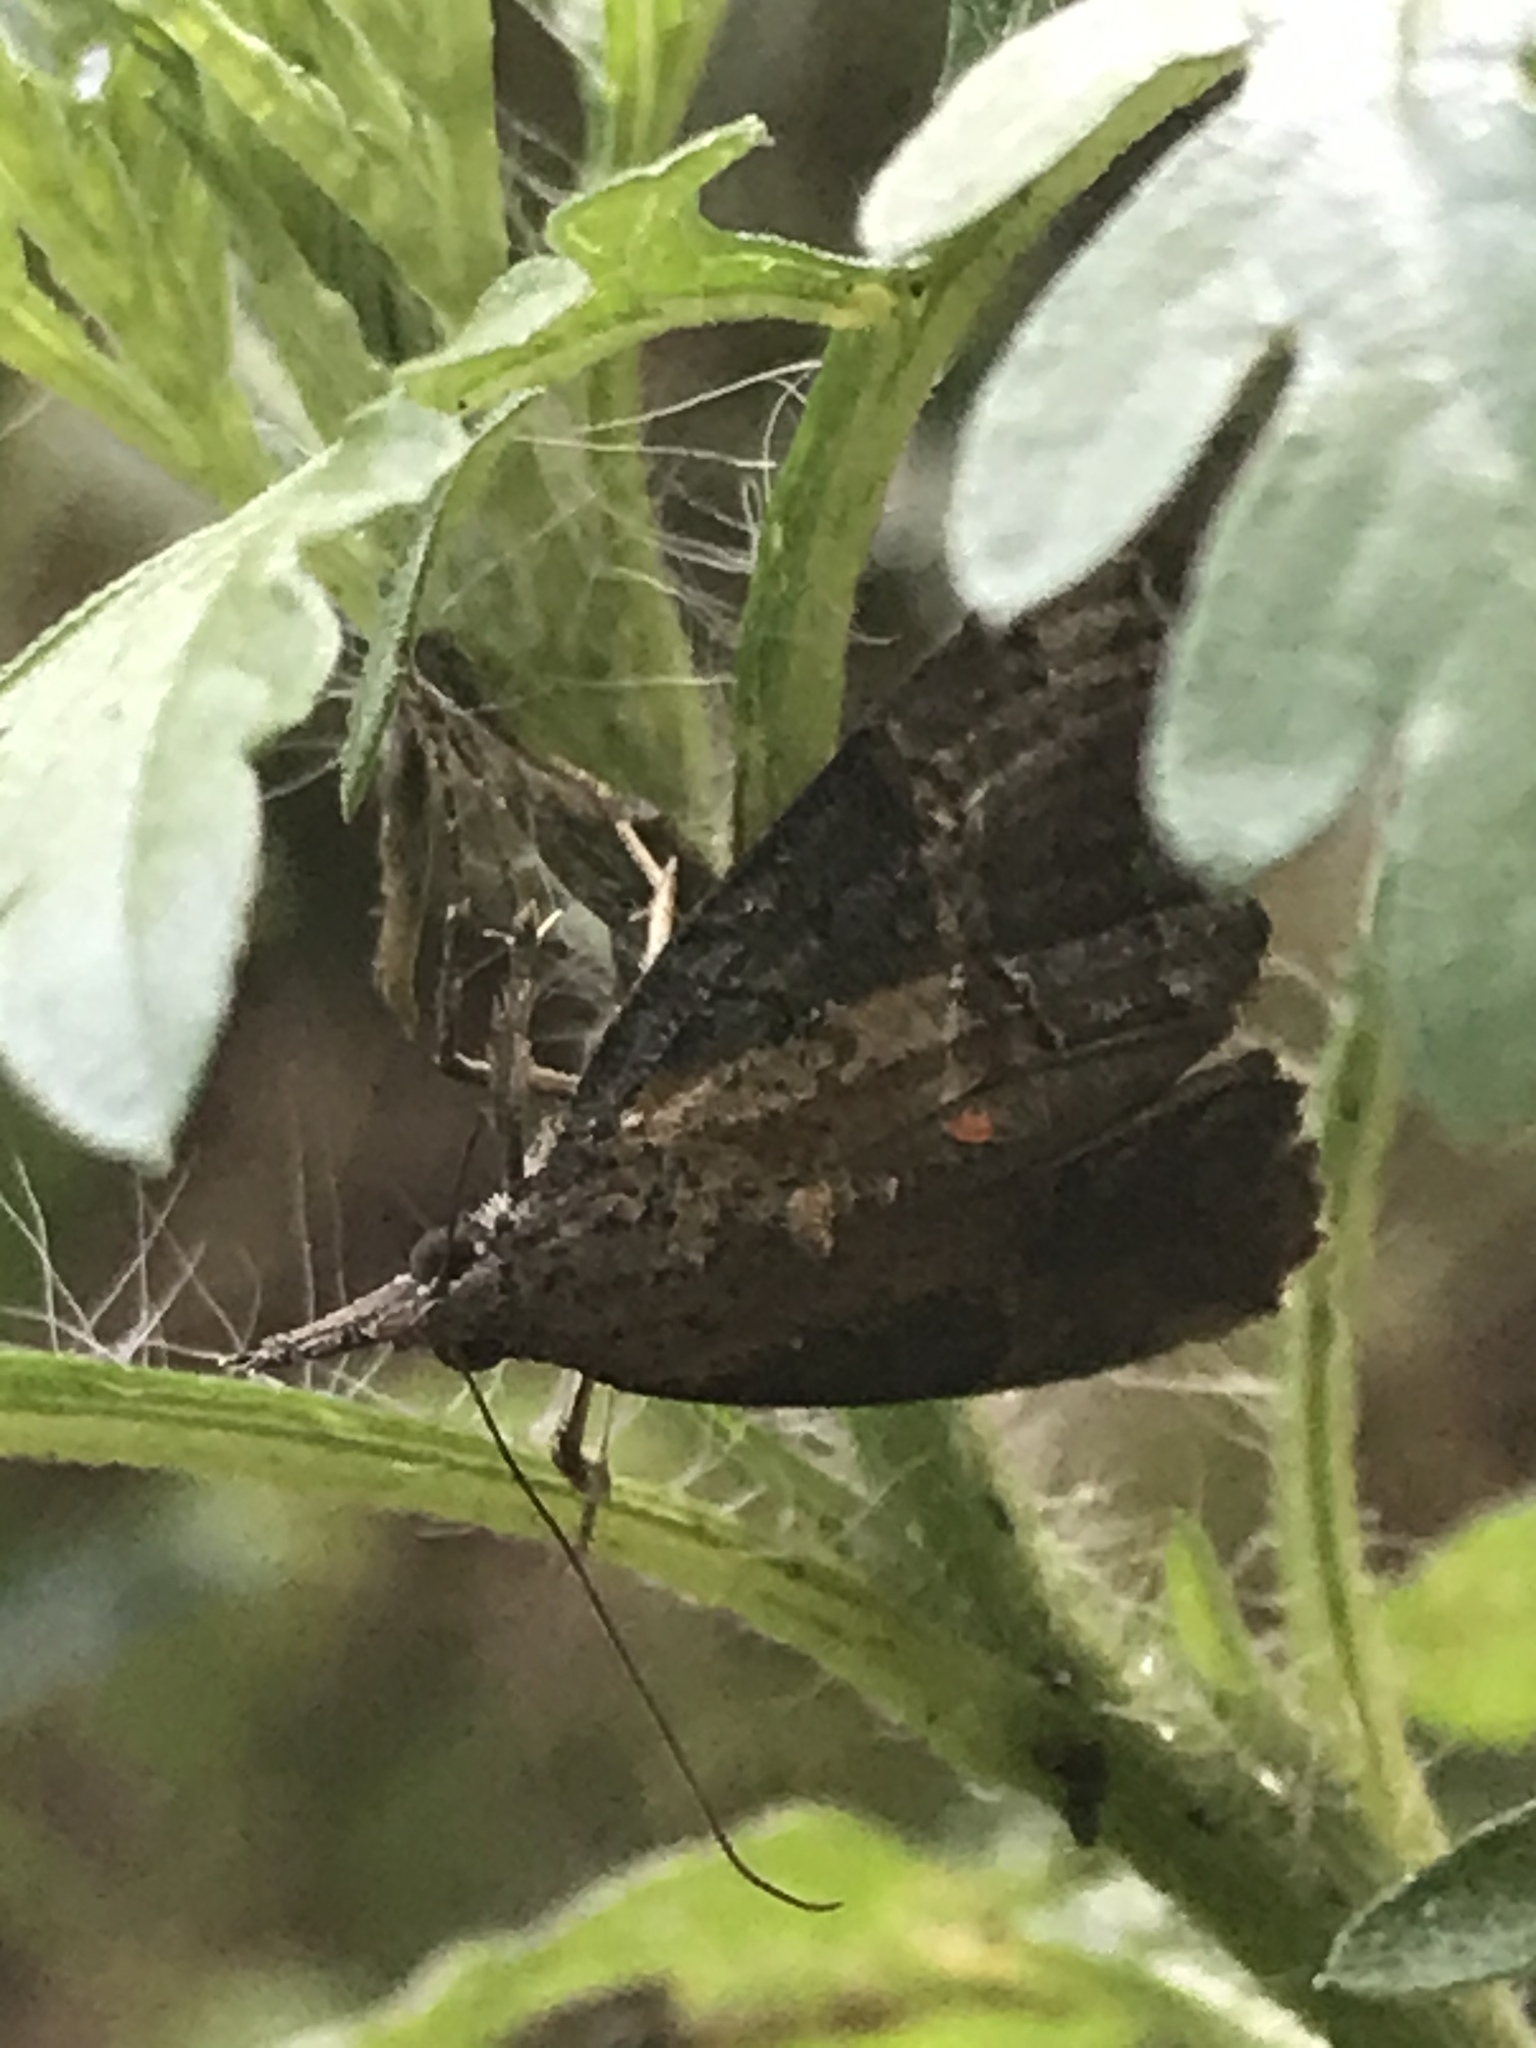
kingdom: Animalia
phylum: Arthropoda
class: Insecta
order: Lepidoptera
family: Erebidae
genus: Hypena
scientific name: Hypena scabra
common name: Green cloverworm
